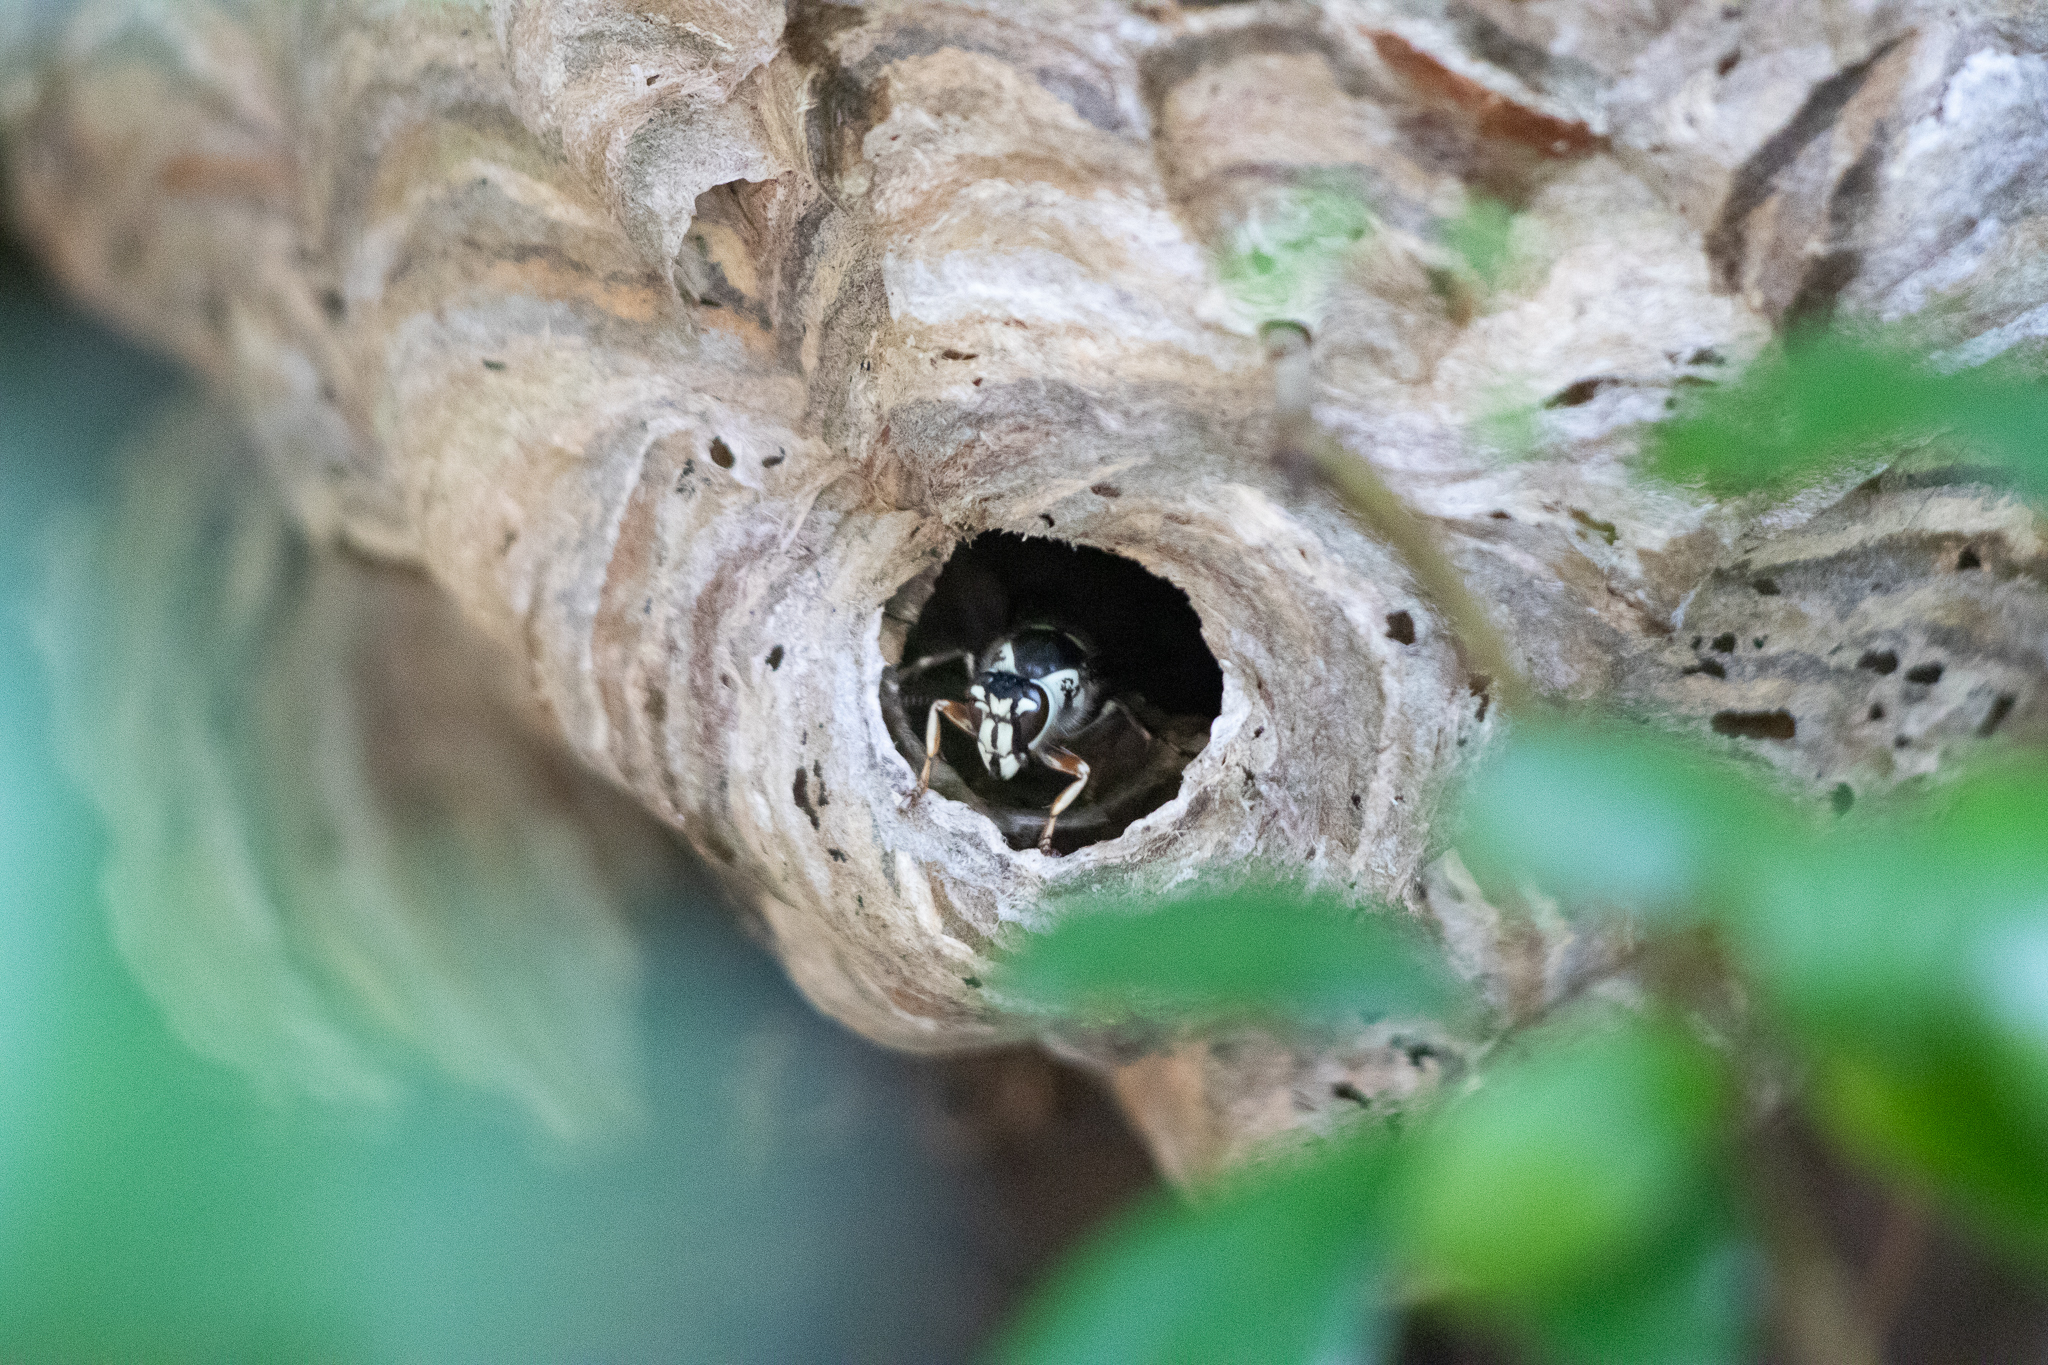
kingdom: Animalia
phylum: Arthropoda
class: Insecta
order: Hymenoptera
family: Vespidae
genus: Dolichovespula
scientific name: Dolichovespula maculata
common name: Bald-faced hornet
